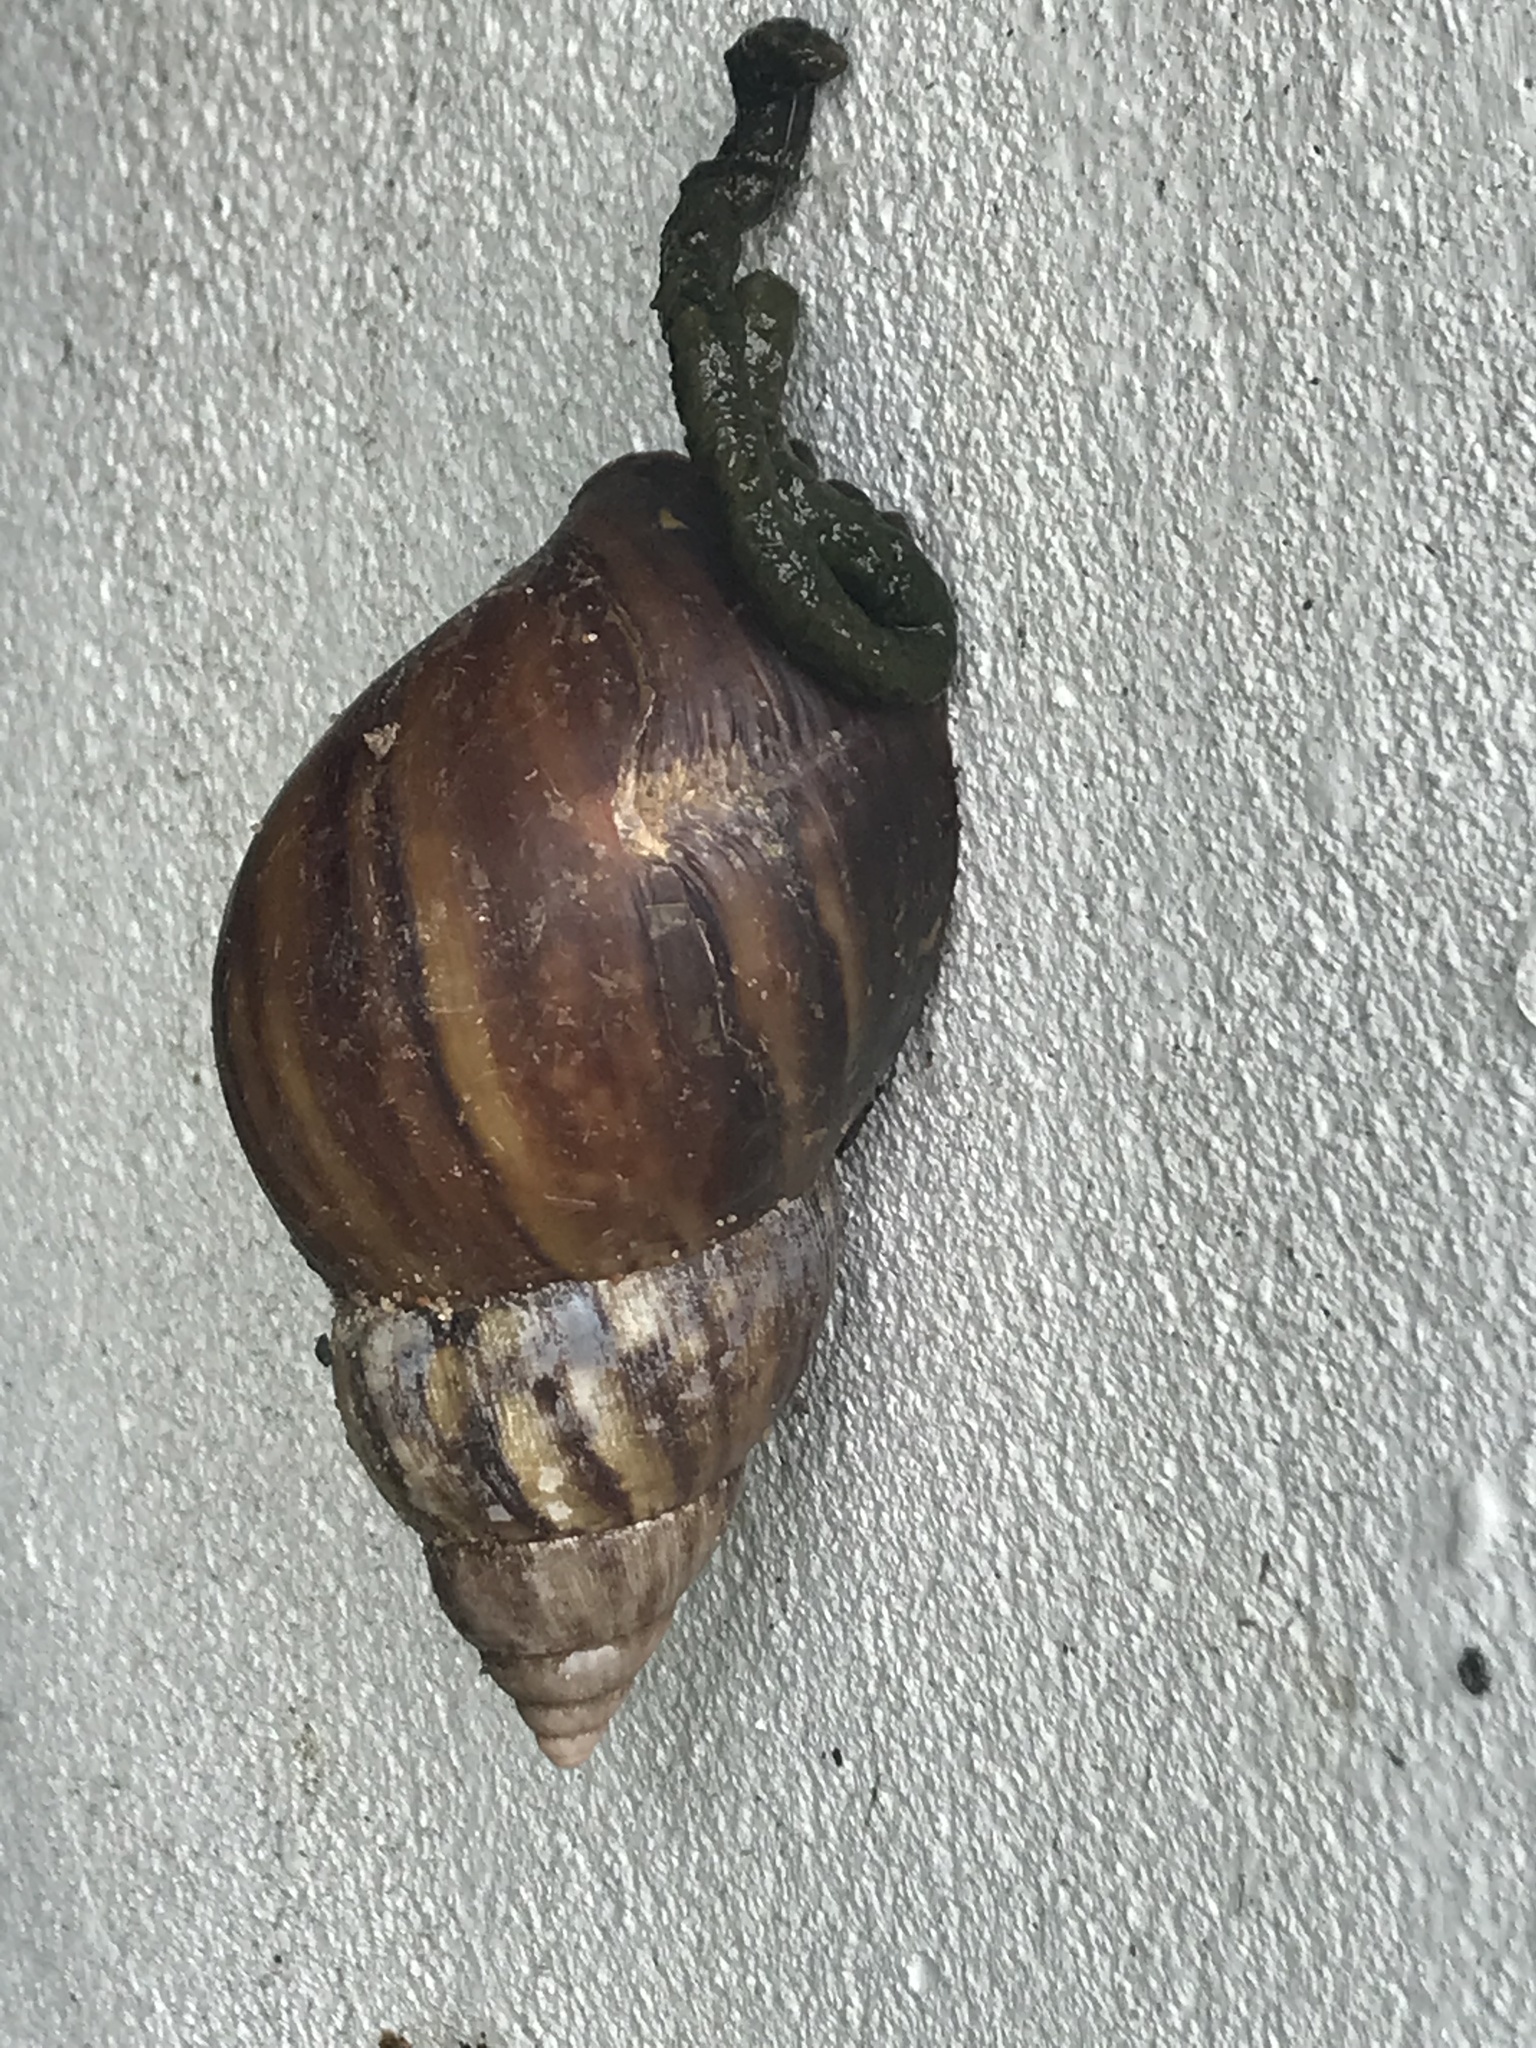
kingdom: Animalia
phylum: Mollusca
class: Gastropoda
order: Stylommatophora
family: Achatinidae
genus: Lissachatina
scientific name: Lissachatina fulica
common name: Giant african snail
